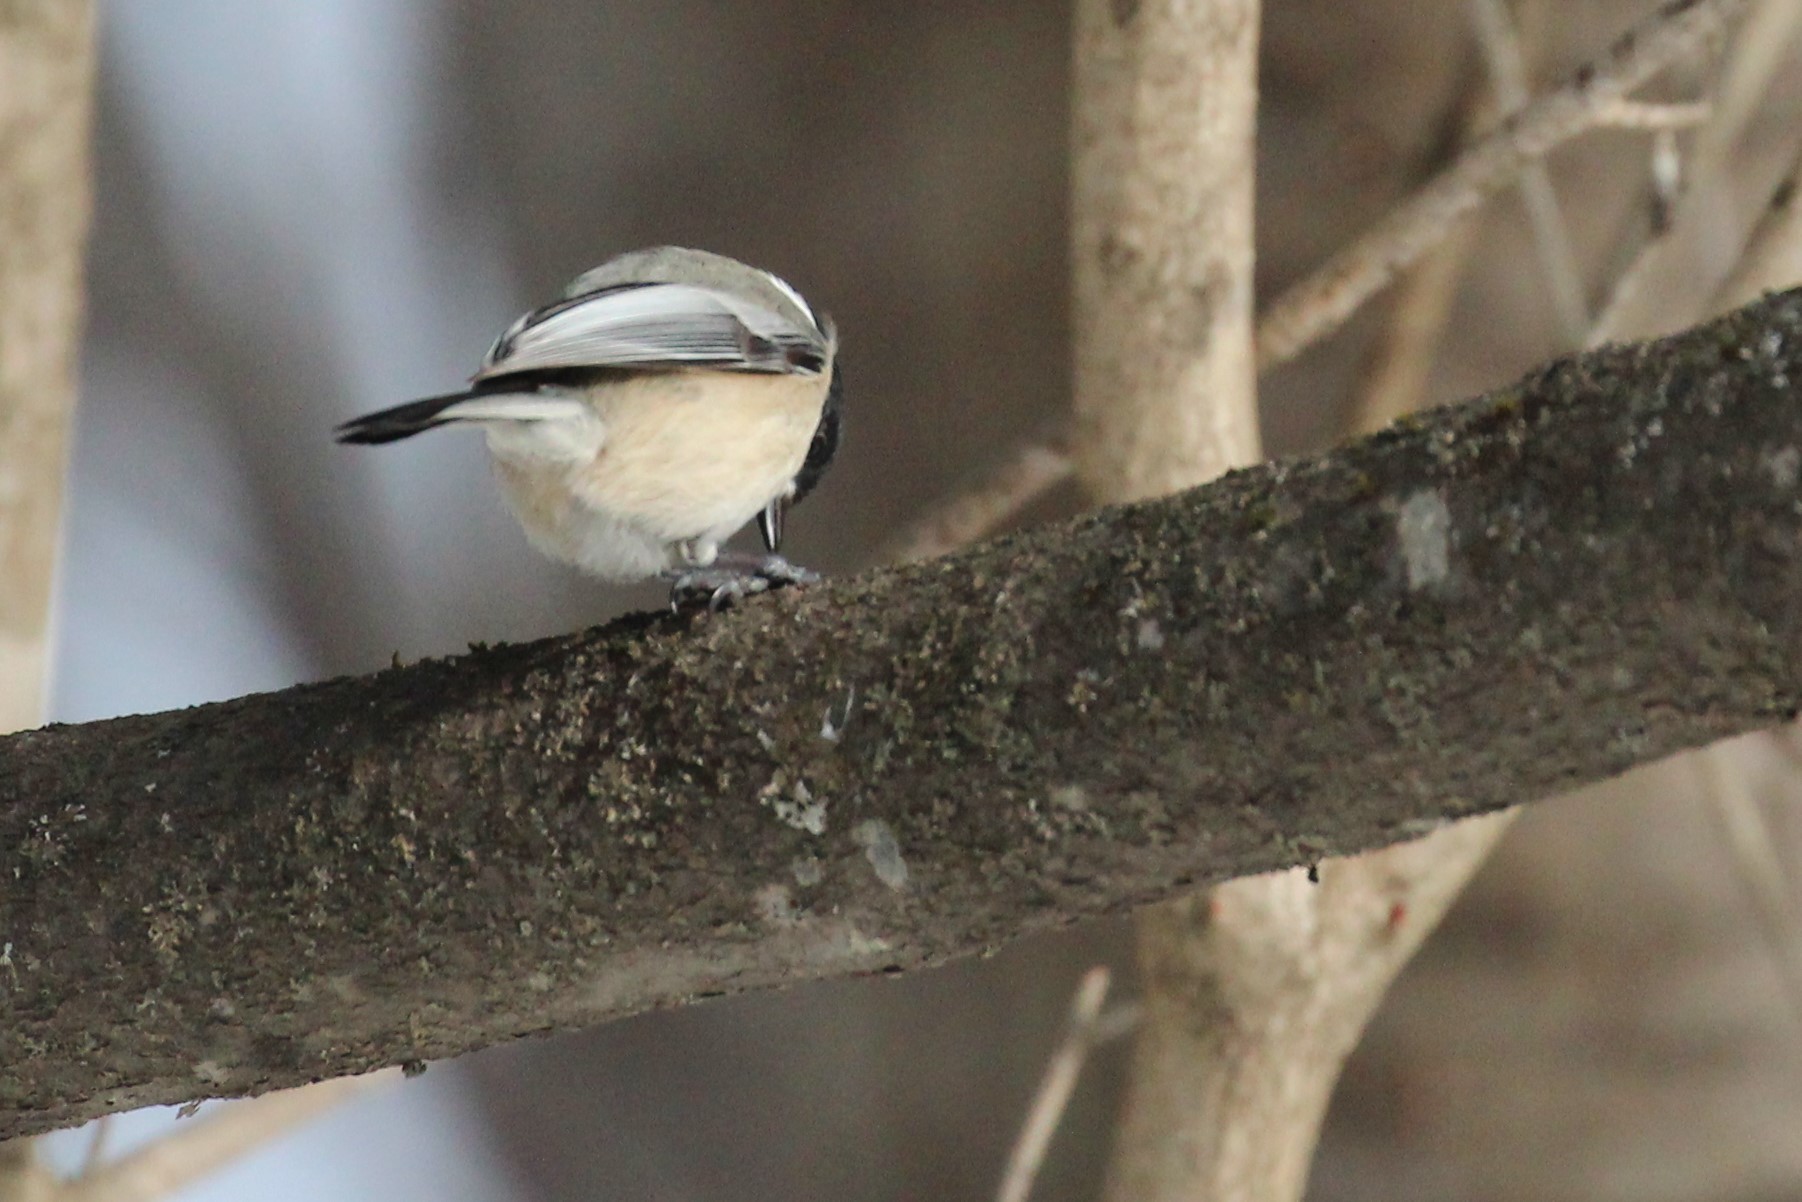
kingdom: Animalia
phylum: Chordata
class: Aves
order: Passeriformes
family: Paridae
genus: Poecile
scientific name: Poecile atricapillus
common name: Black-capped chickadee
